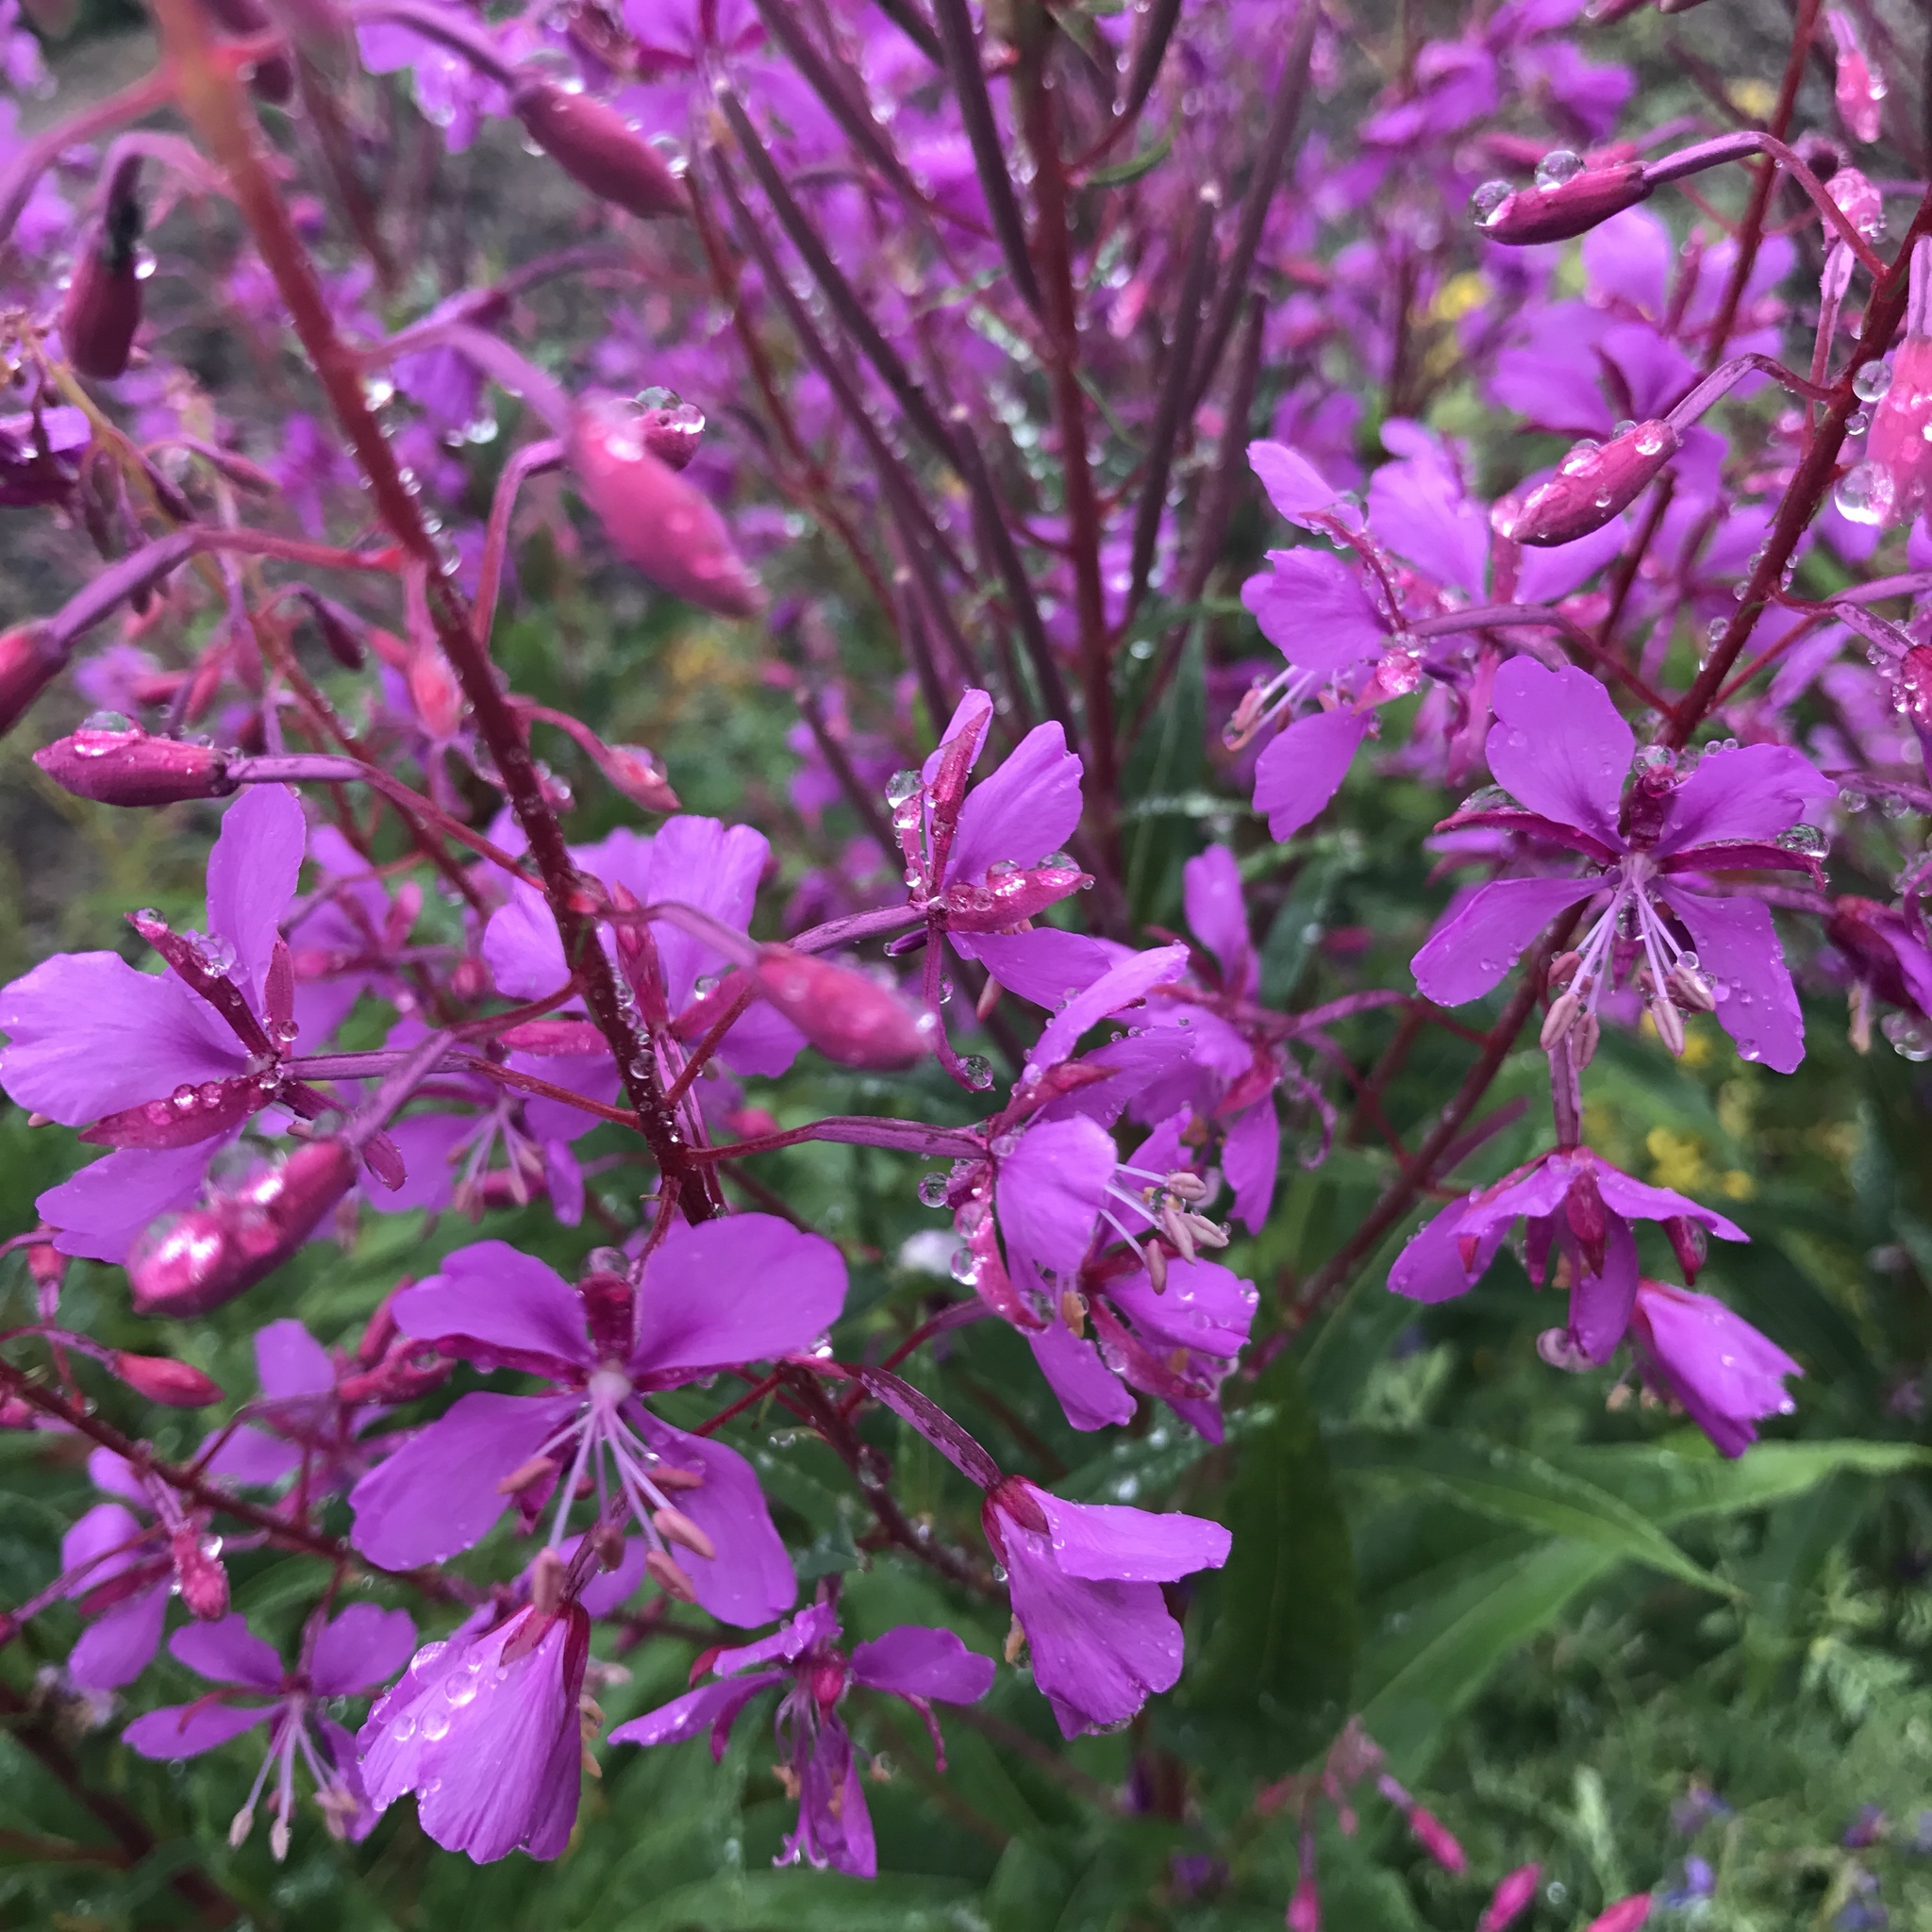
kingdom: Plantae
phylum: Tracheophyta
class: Magnoliopsida
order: Myrtales
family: Onagraceae
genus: Chamaenerion
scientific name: Chamaenerion angustifolium
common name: Fireweed
